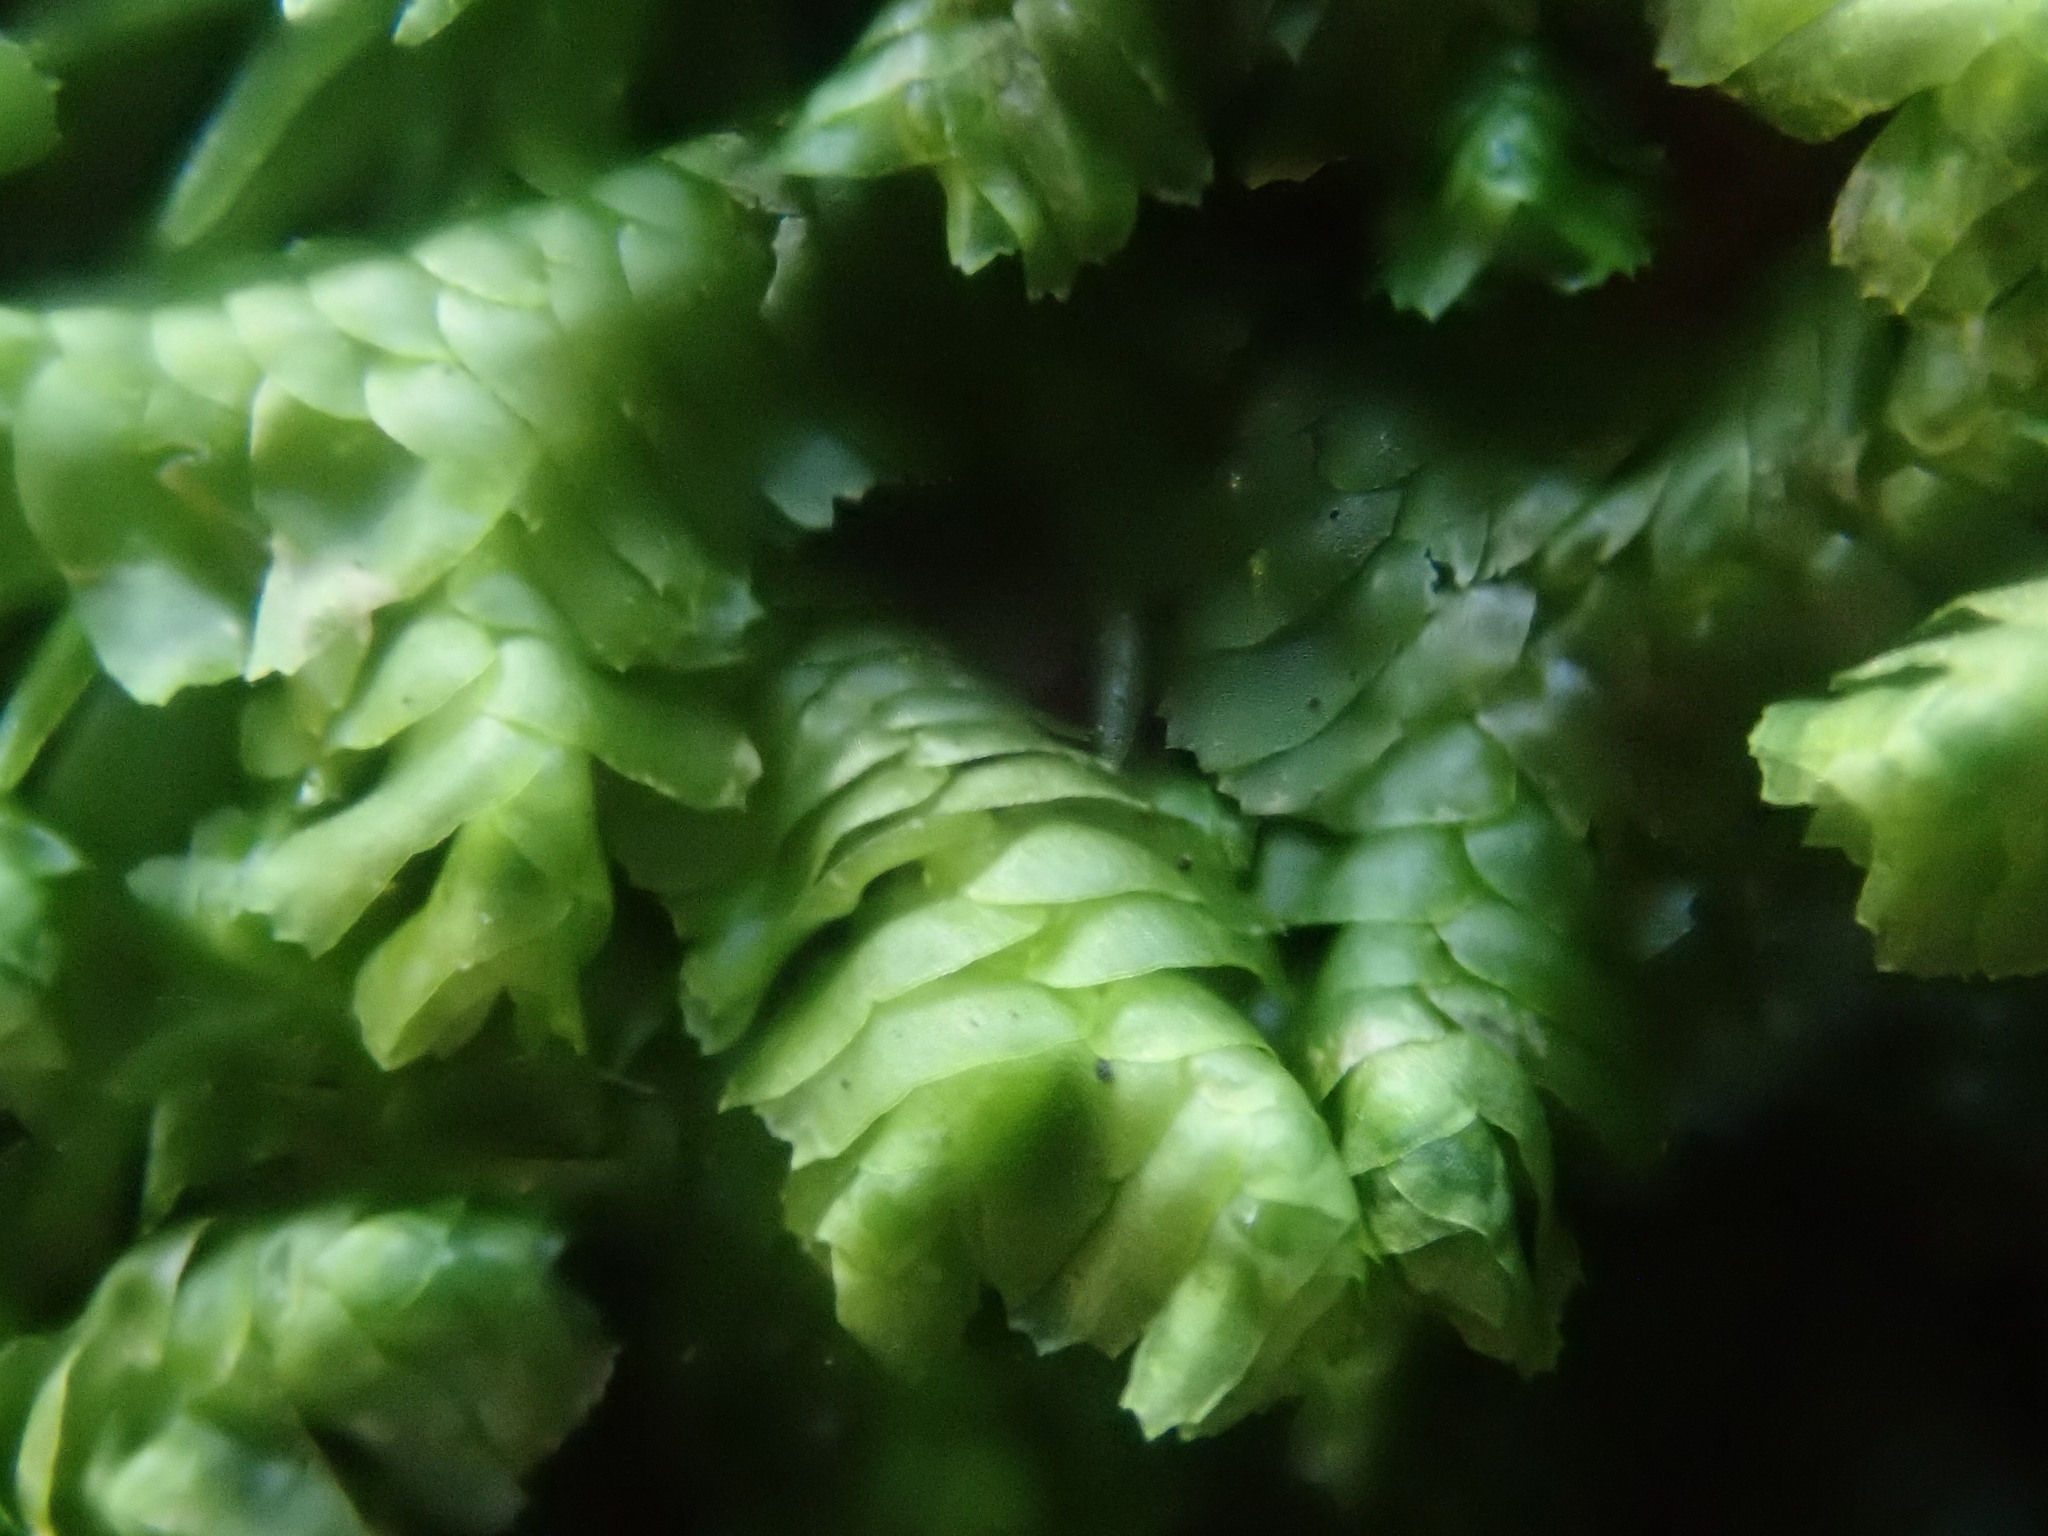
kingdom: Plantae
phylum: Marchantiophyta
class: Jungermanniopsida
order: Jungermanniales
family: Lepidoziaceae
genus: Bazzania
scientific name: Bazzania trilobata
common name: Three-lobed whipwort
